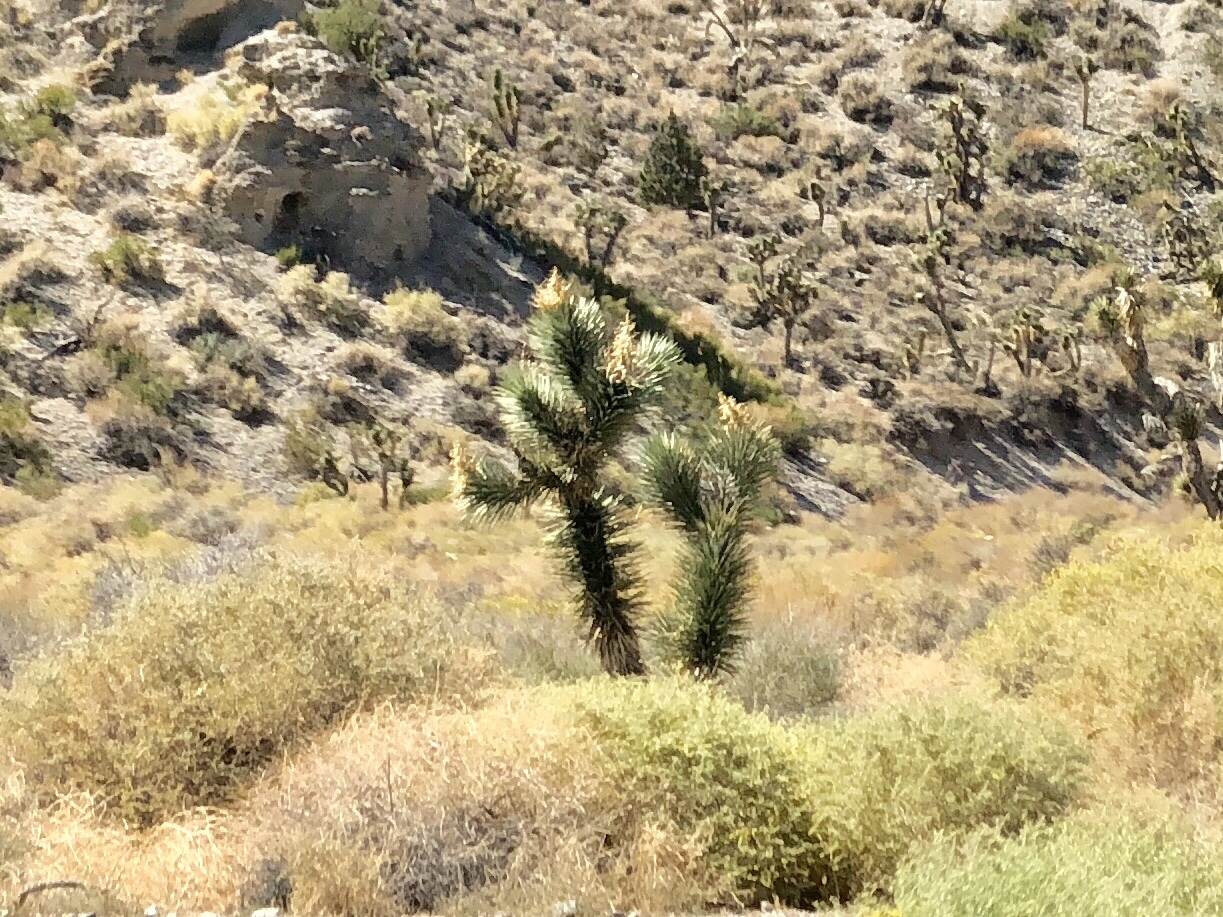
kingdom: Plantae
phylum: Tracheophyta
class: Liliopsida
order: Asparagales
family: Asparagaceae
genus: Yucca
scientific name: Yucca brevifolia
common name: Joshua tree
